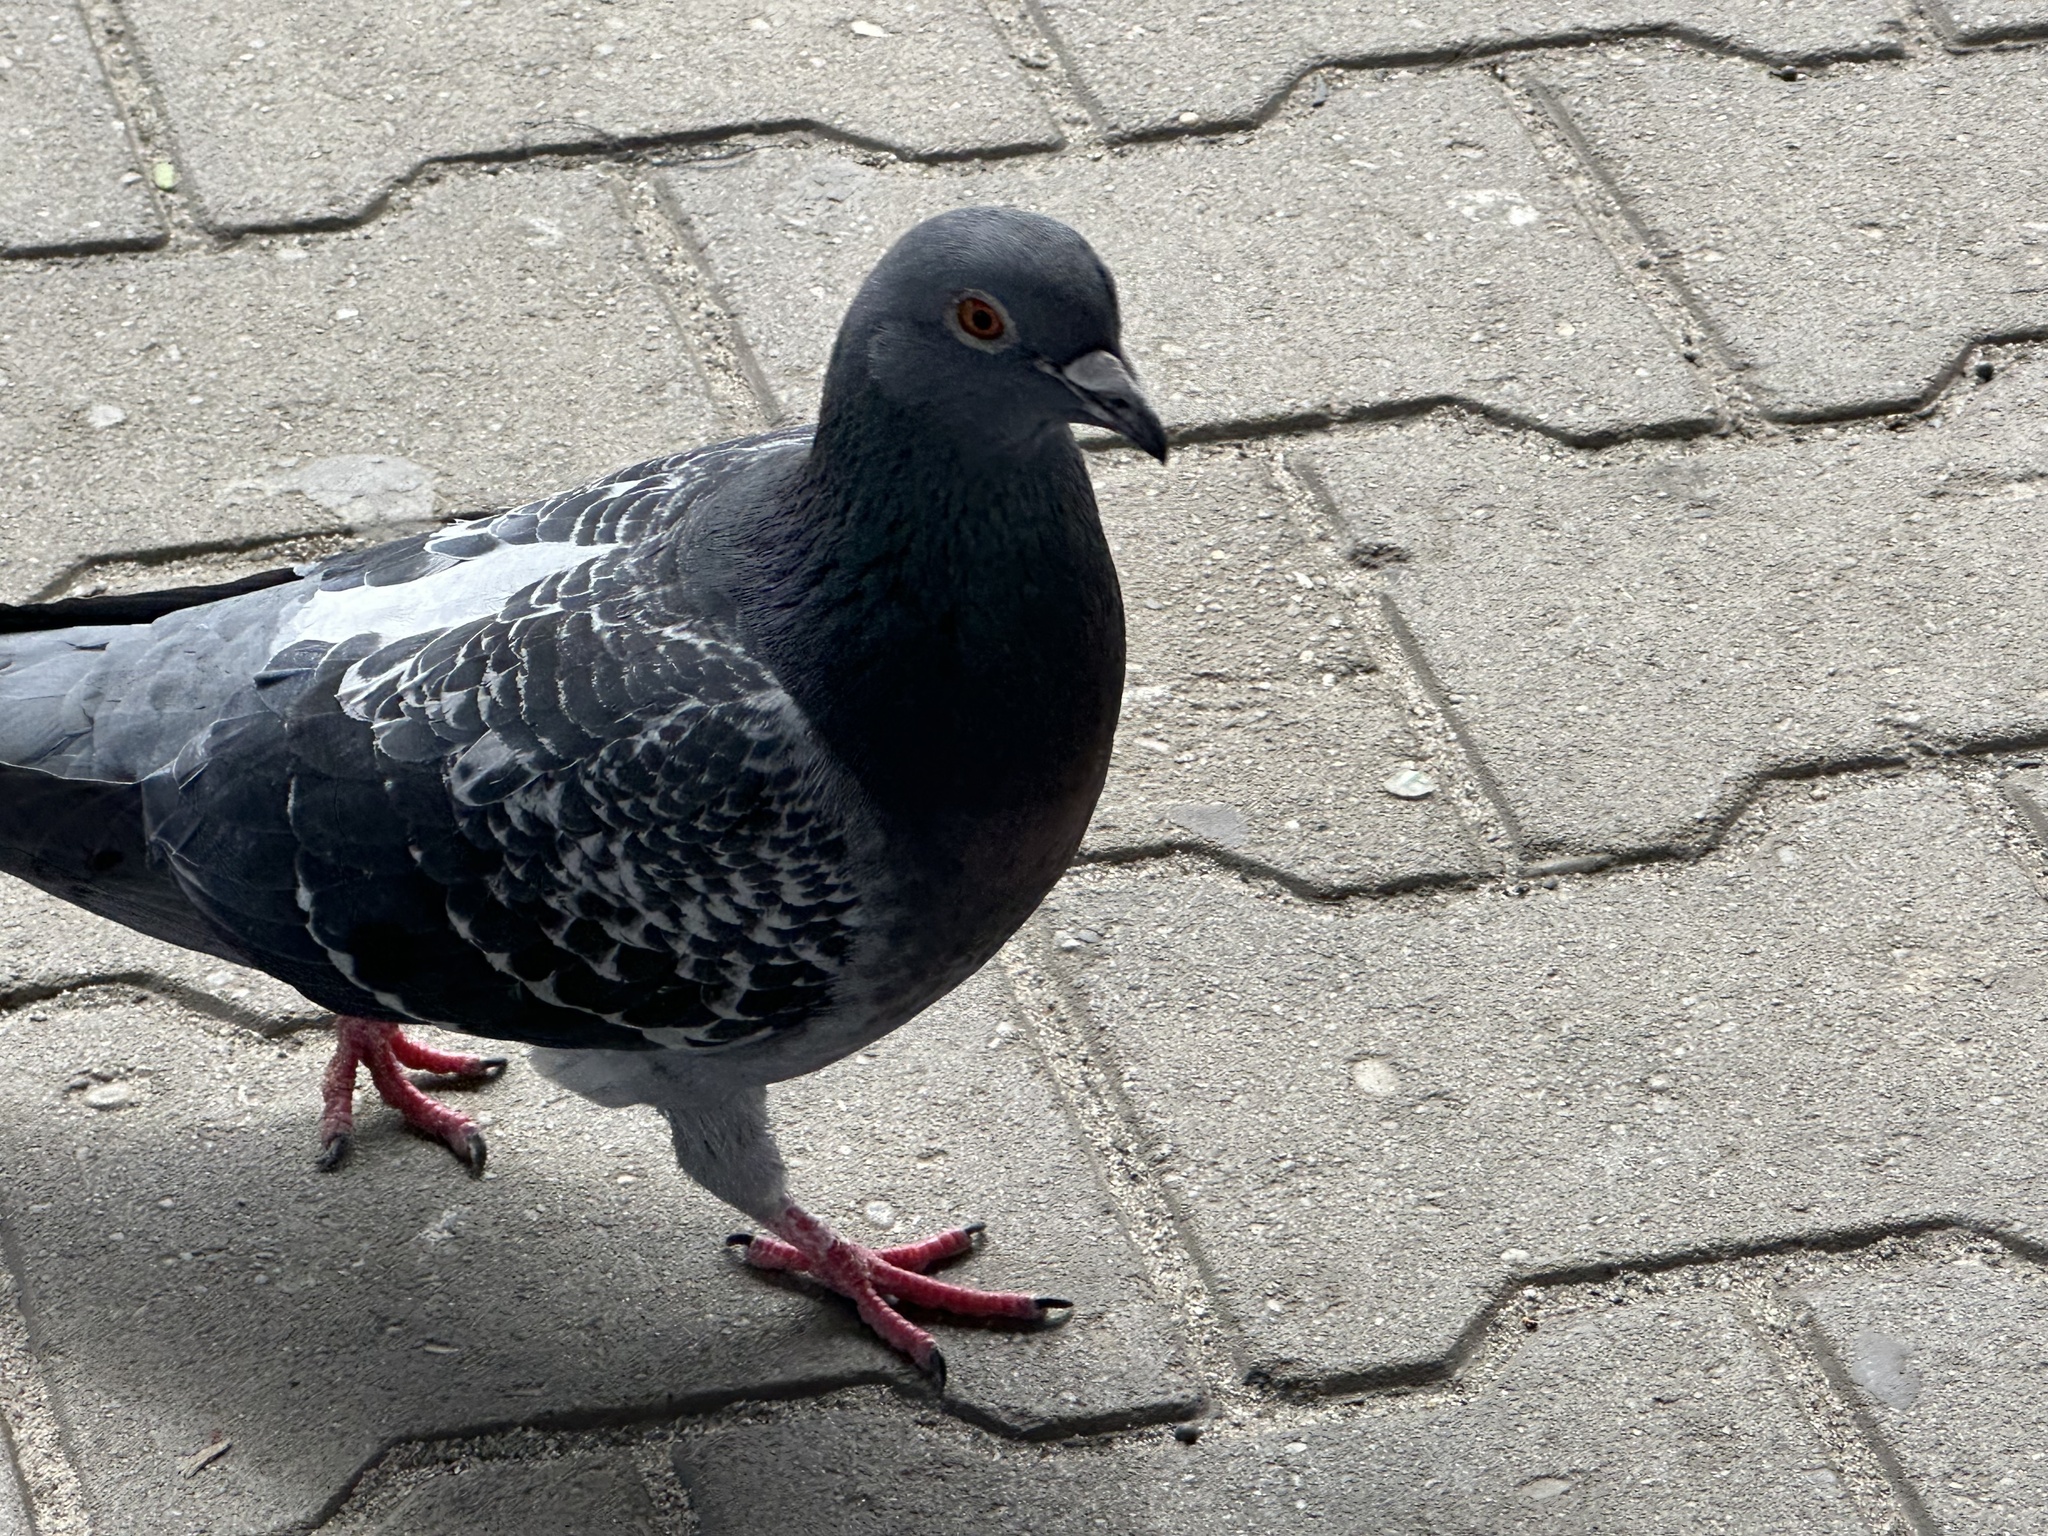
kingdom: Animalia
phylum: Chordata
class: Aves
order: Columbiformes
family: Columbidae
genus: Columba
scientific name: Columba livia
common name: Rock pigeon
